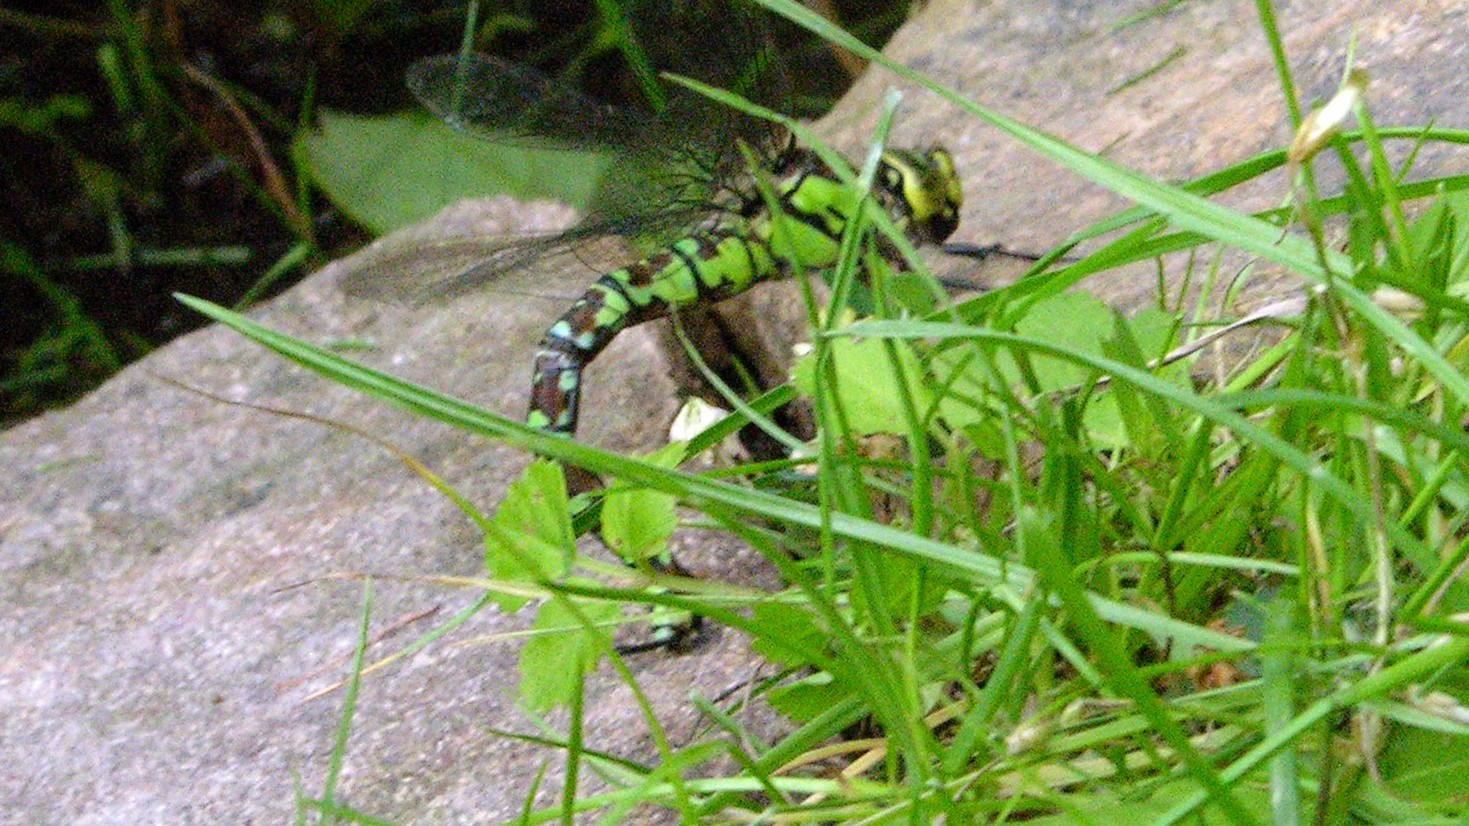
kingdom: Animalia
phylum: Arthropoda
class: Insecta
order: Odonata
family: Aeshnidae
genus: Aeshna
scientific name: Aeshna cyanea
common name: Southern hawker
